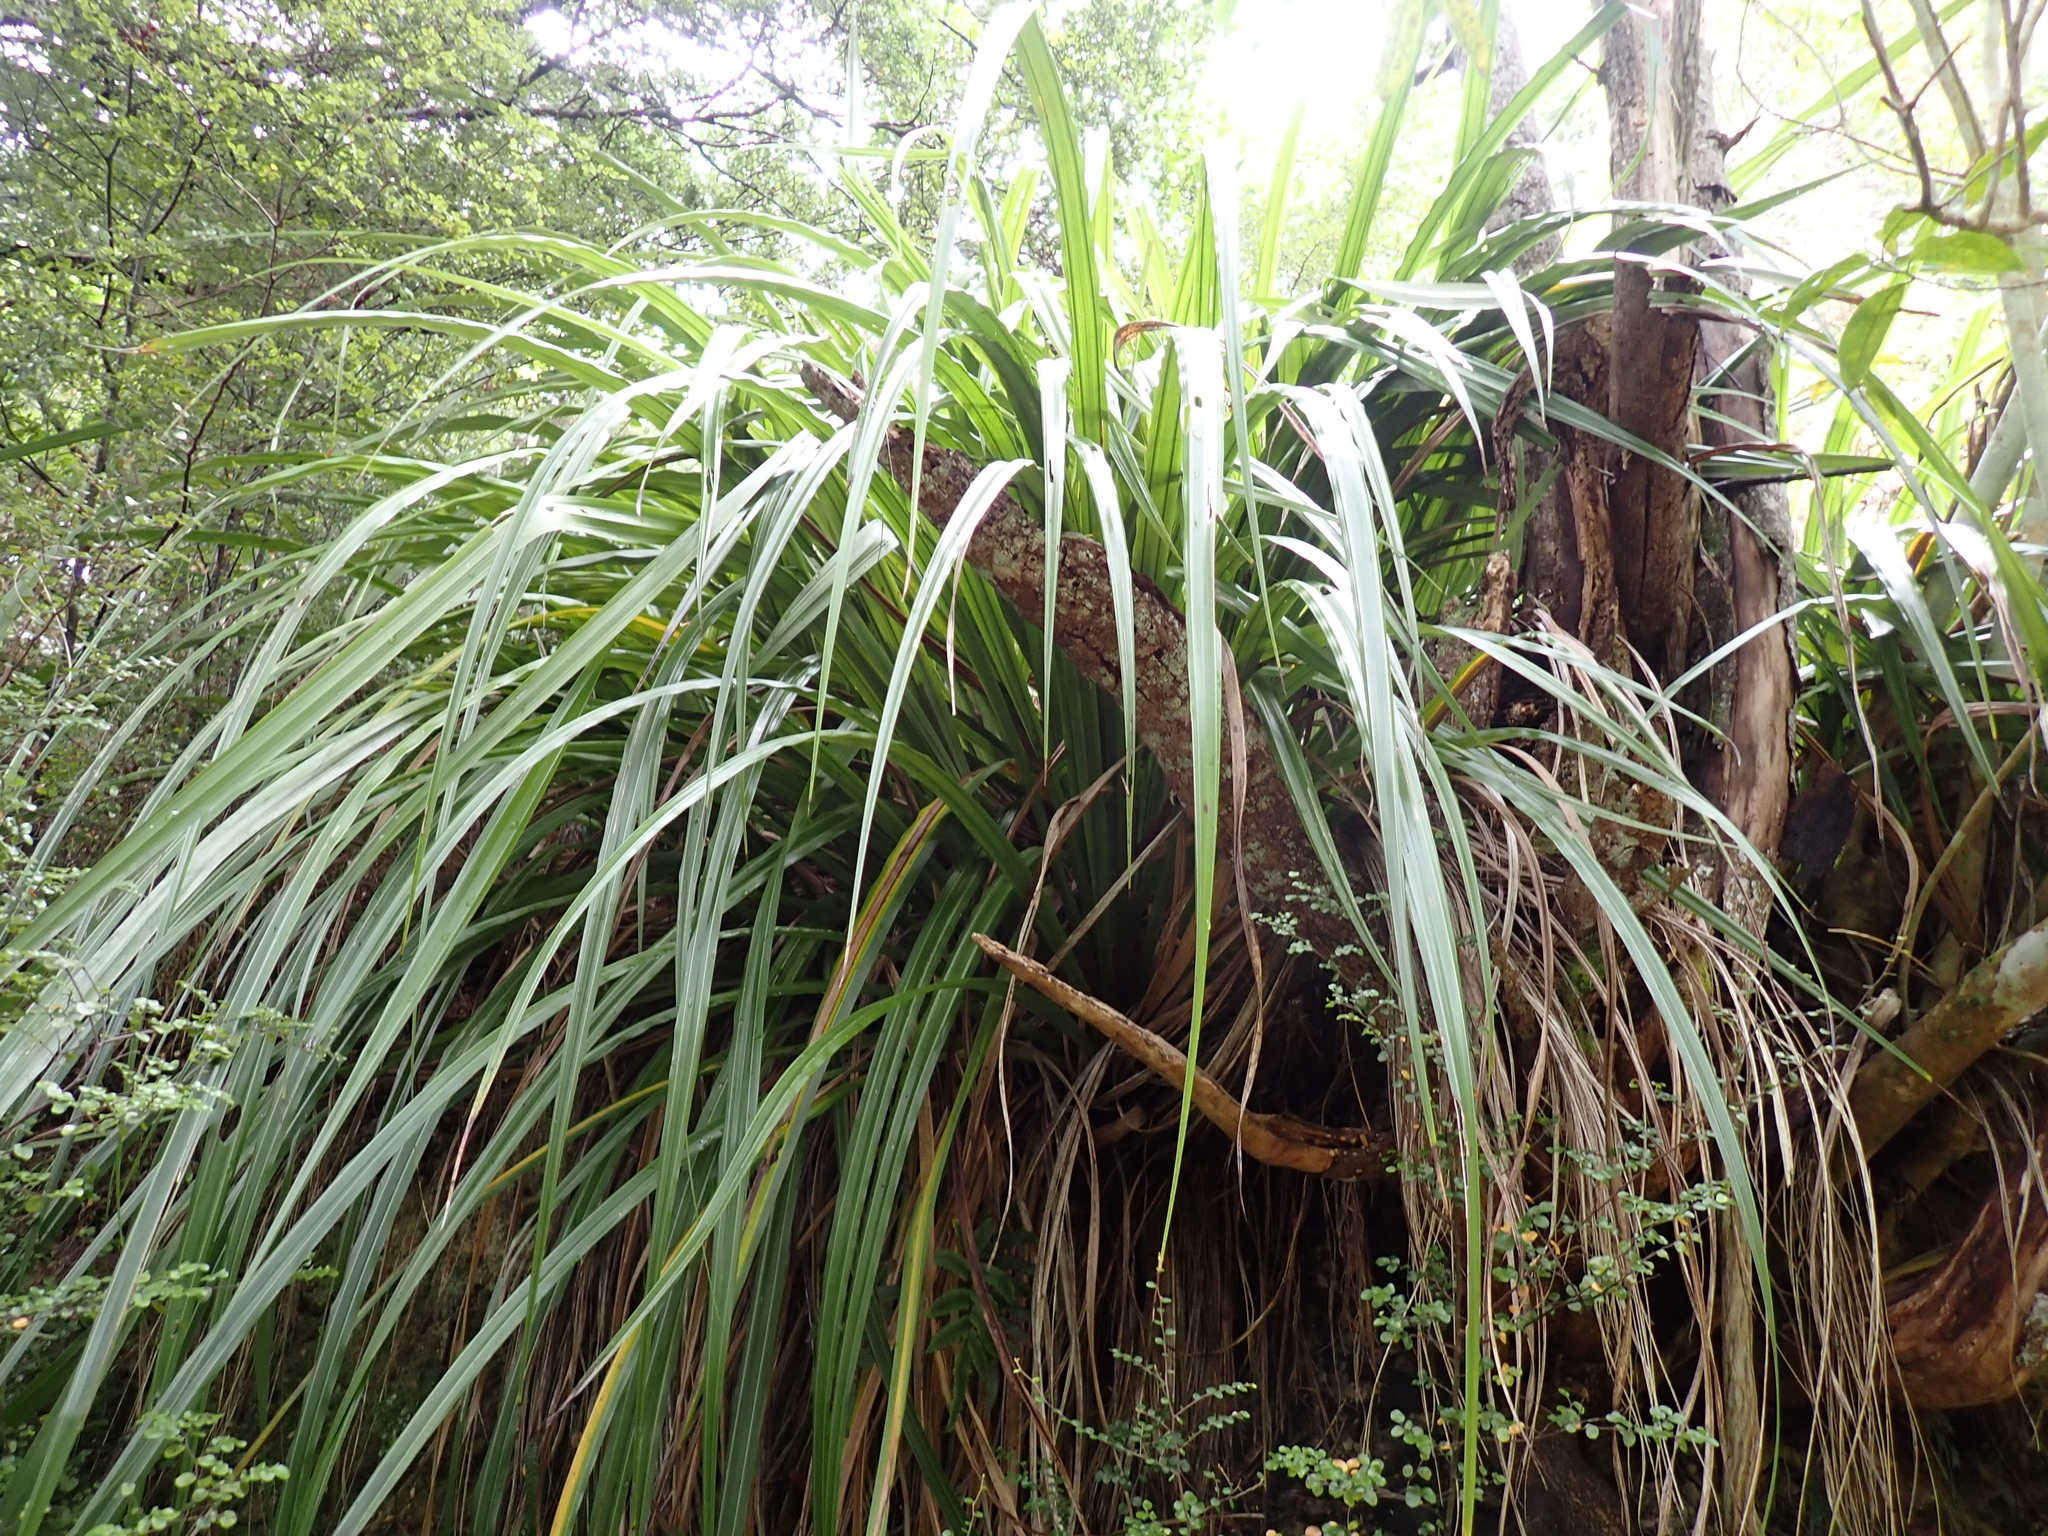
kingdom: Plantae
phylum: Tracheophyta
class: Liliopsida
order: Asparagales
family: Asteliaceae
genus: Astelia
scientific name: Astelia fragrans
